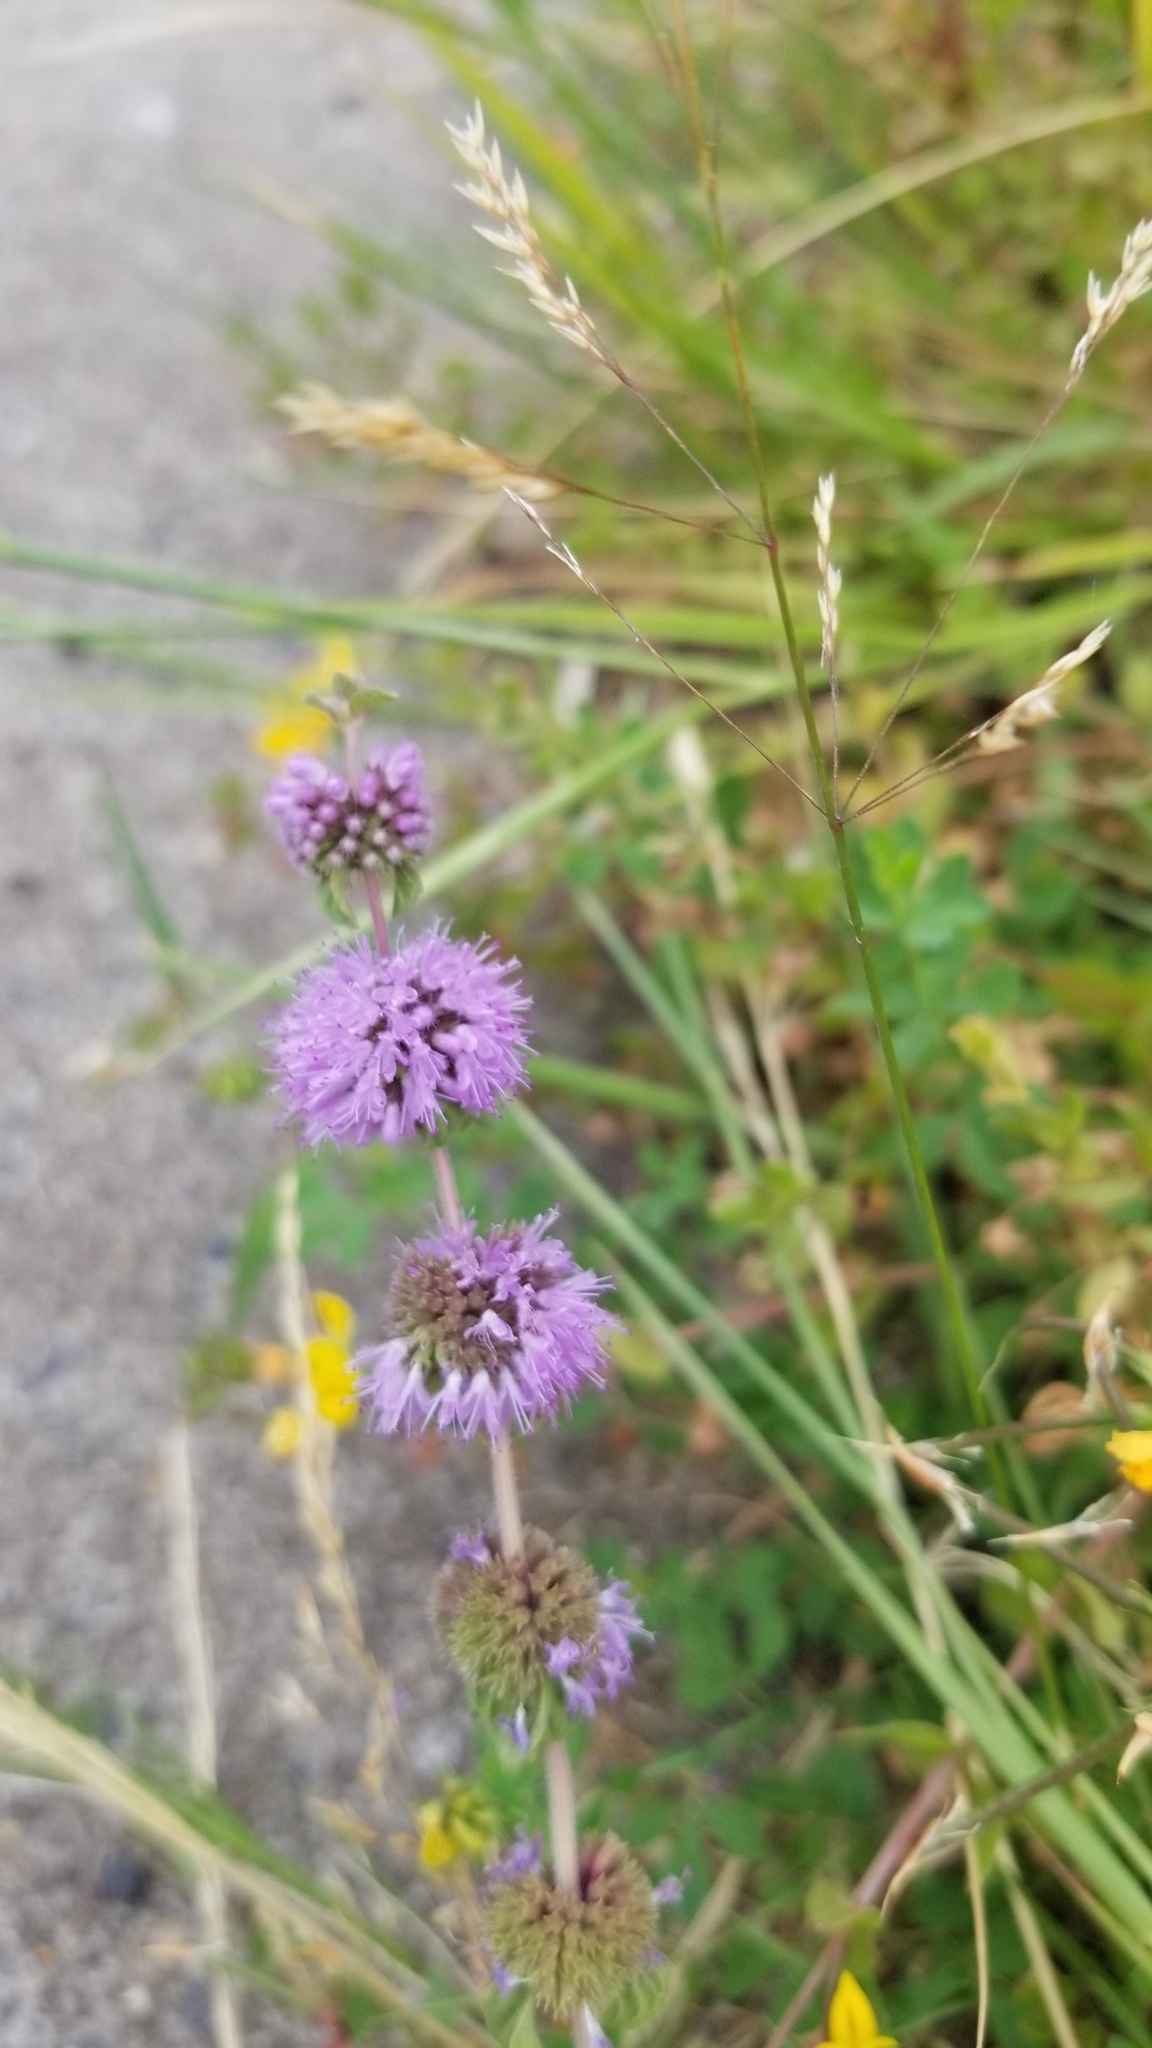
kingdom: Plantae
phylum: Tracheophyta
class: Magnoliopsida
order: Lamiales
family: Lamiaceae
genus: Mentha
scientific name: Mentha pulegium
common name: Pennyroyal
